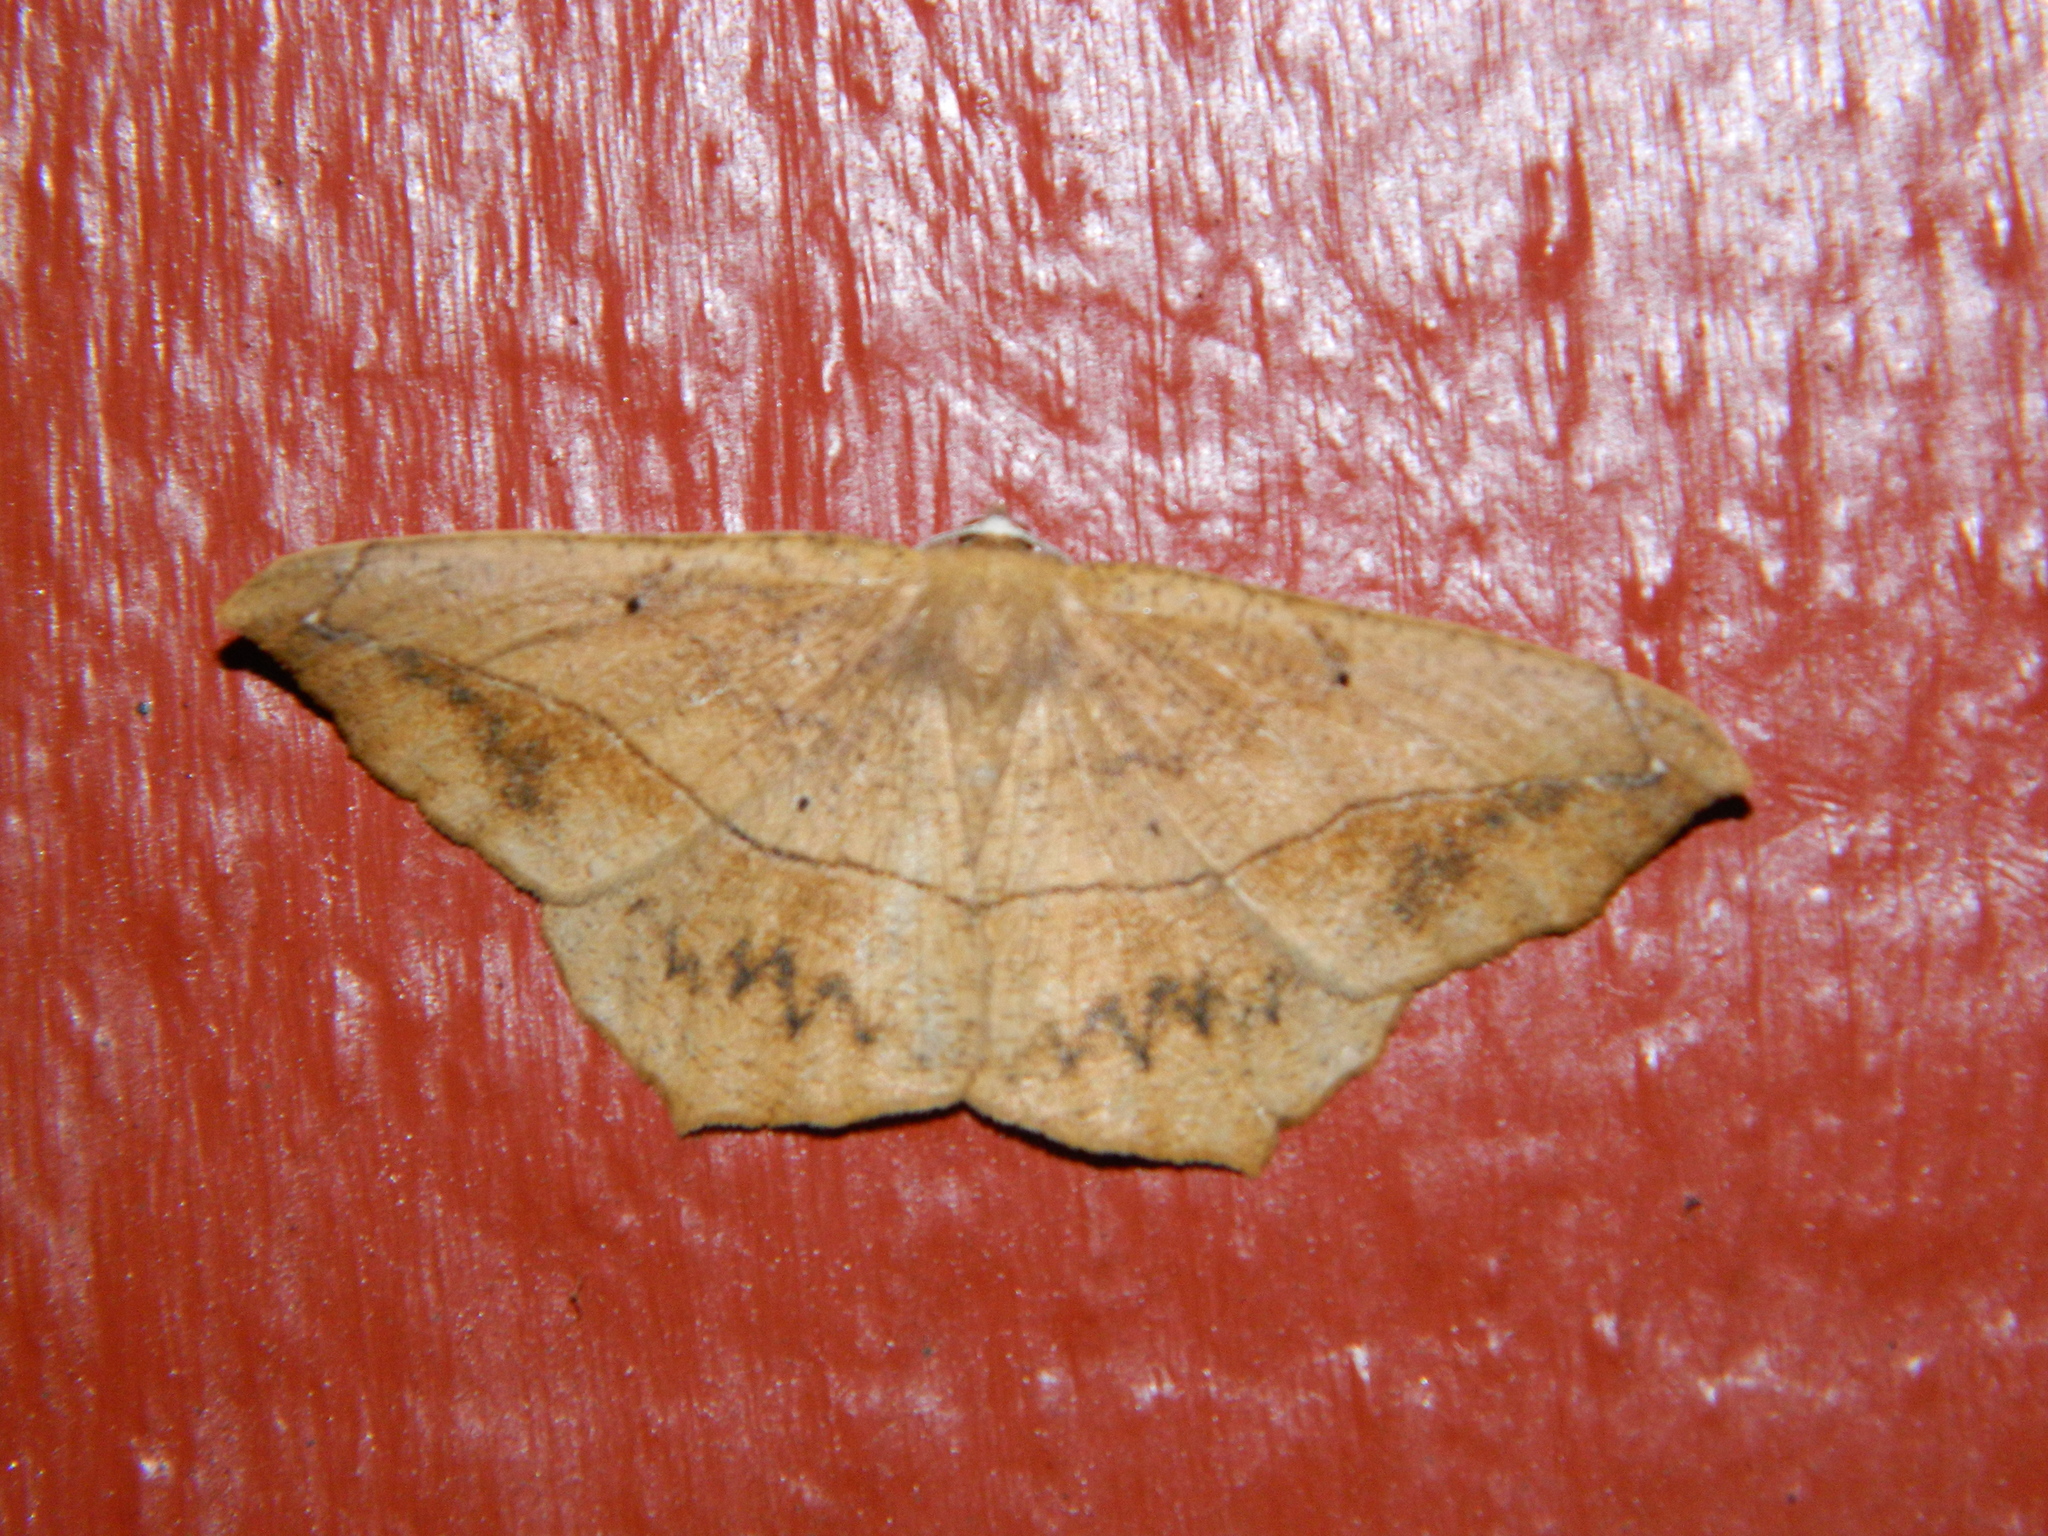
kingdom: Animalia
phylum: Arthropoda
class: Insecta
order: Lepidoptera
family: Geometridae
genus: Prochoerodes
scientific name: Prochoerodes lineola
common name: Large maple spanworm
